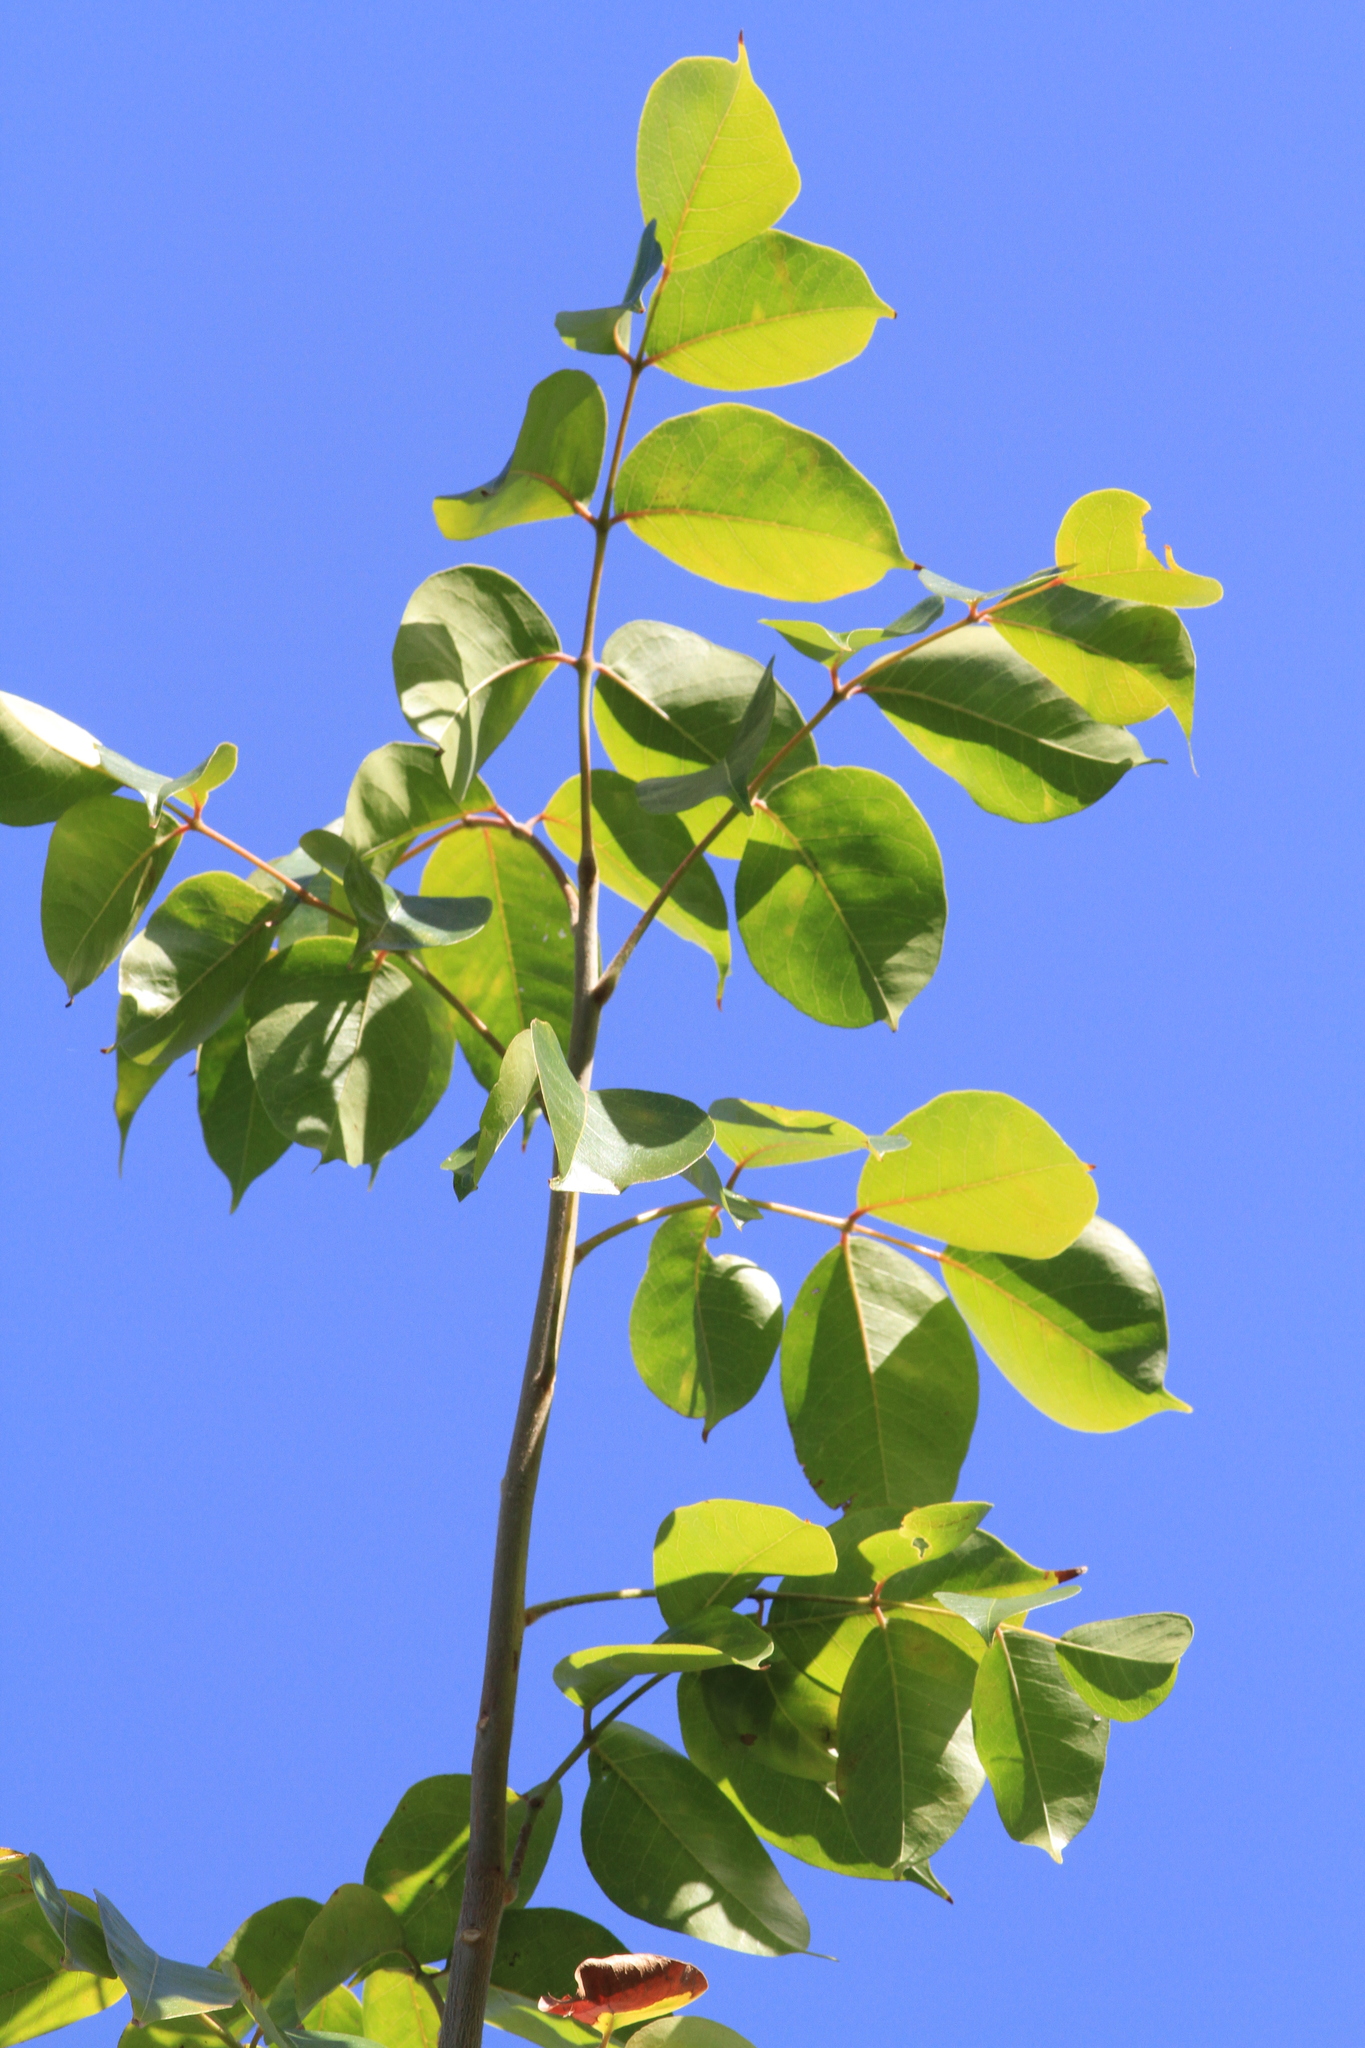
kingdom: Plantae
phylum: Tracheophyta
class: Magnoliopsida
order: Sapindales
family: Burseraceae
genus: Bursera
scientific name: Bursera simaruba
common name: Turpentine tree
